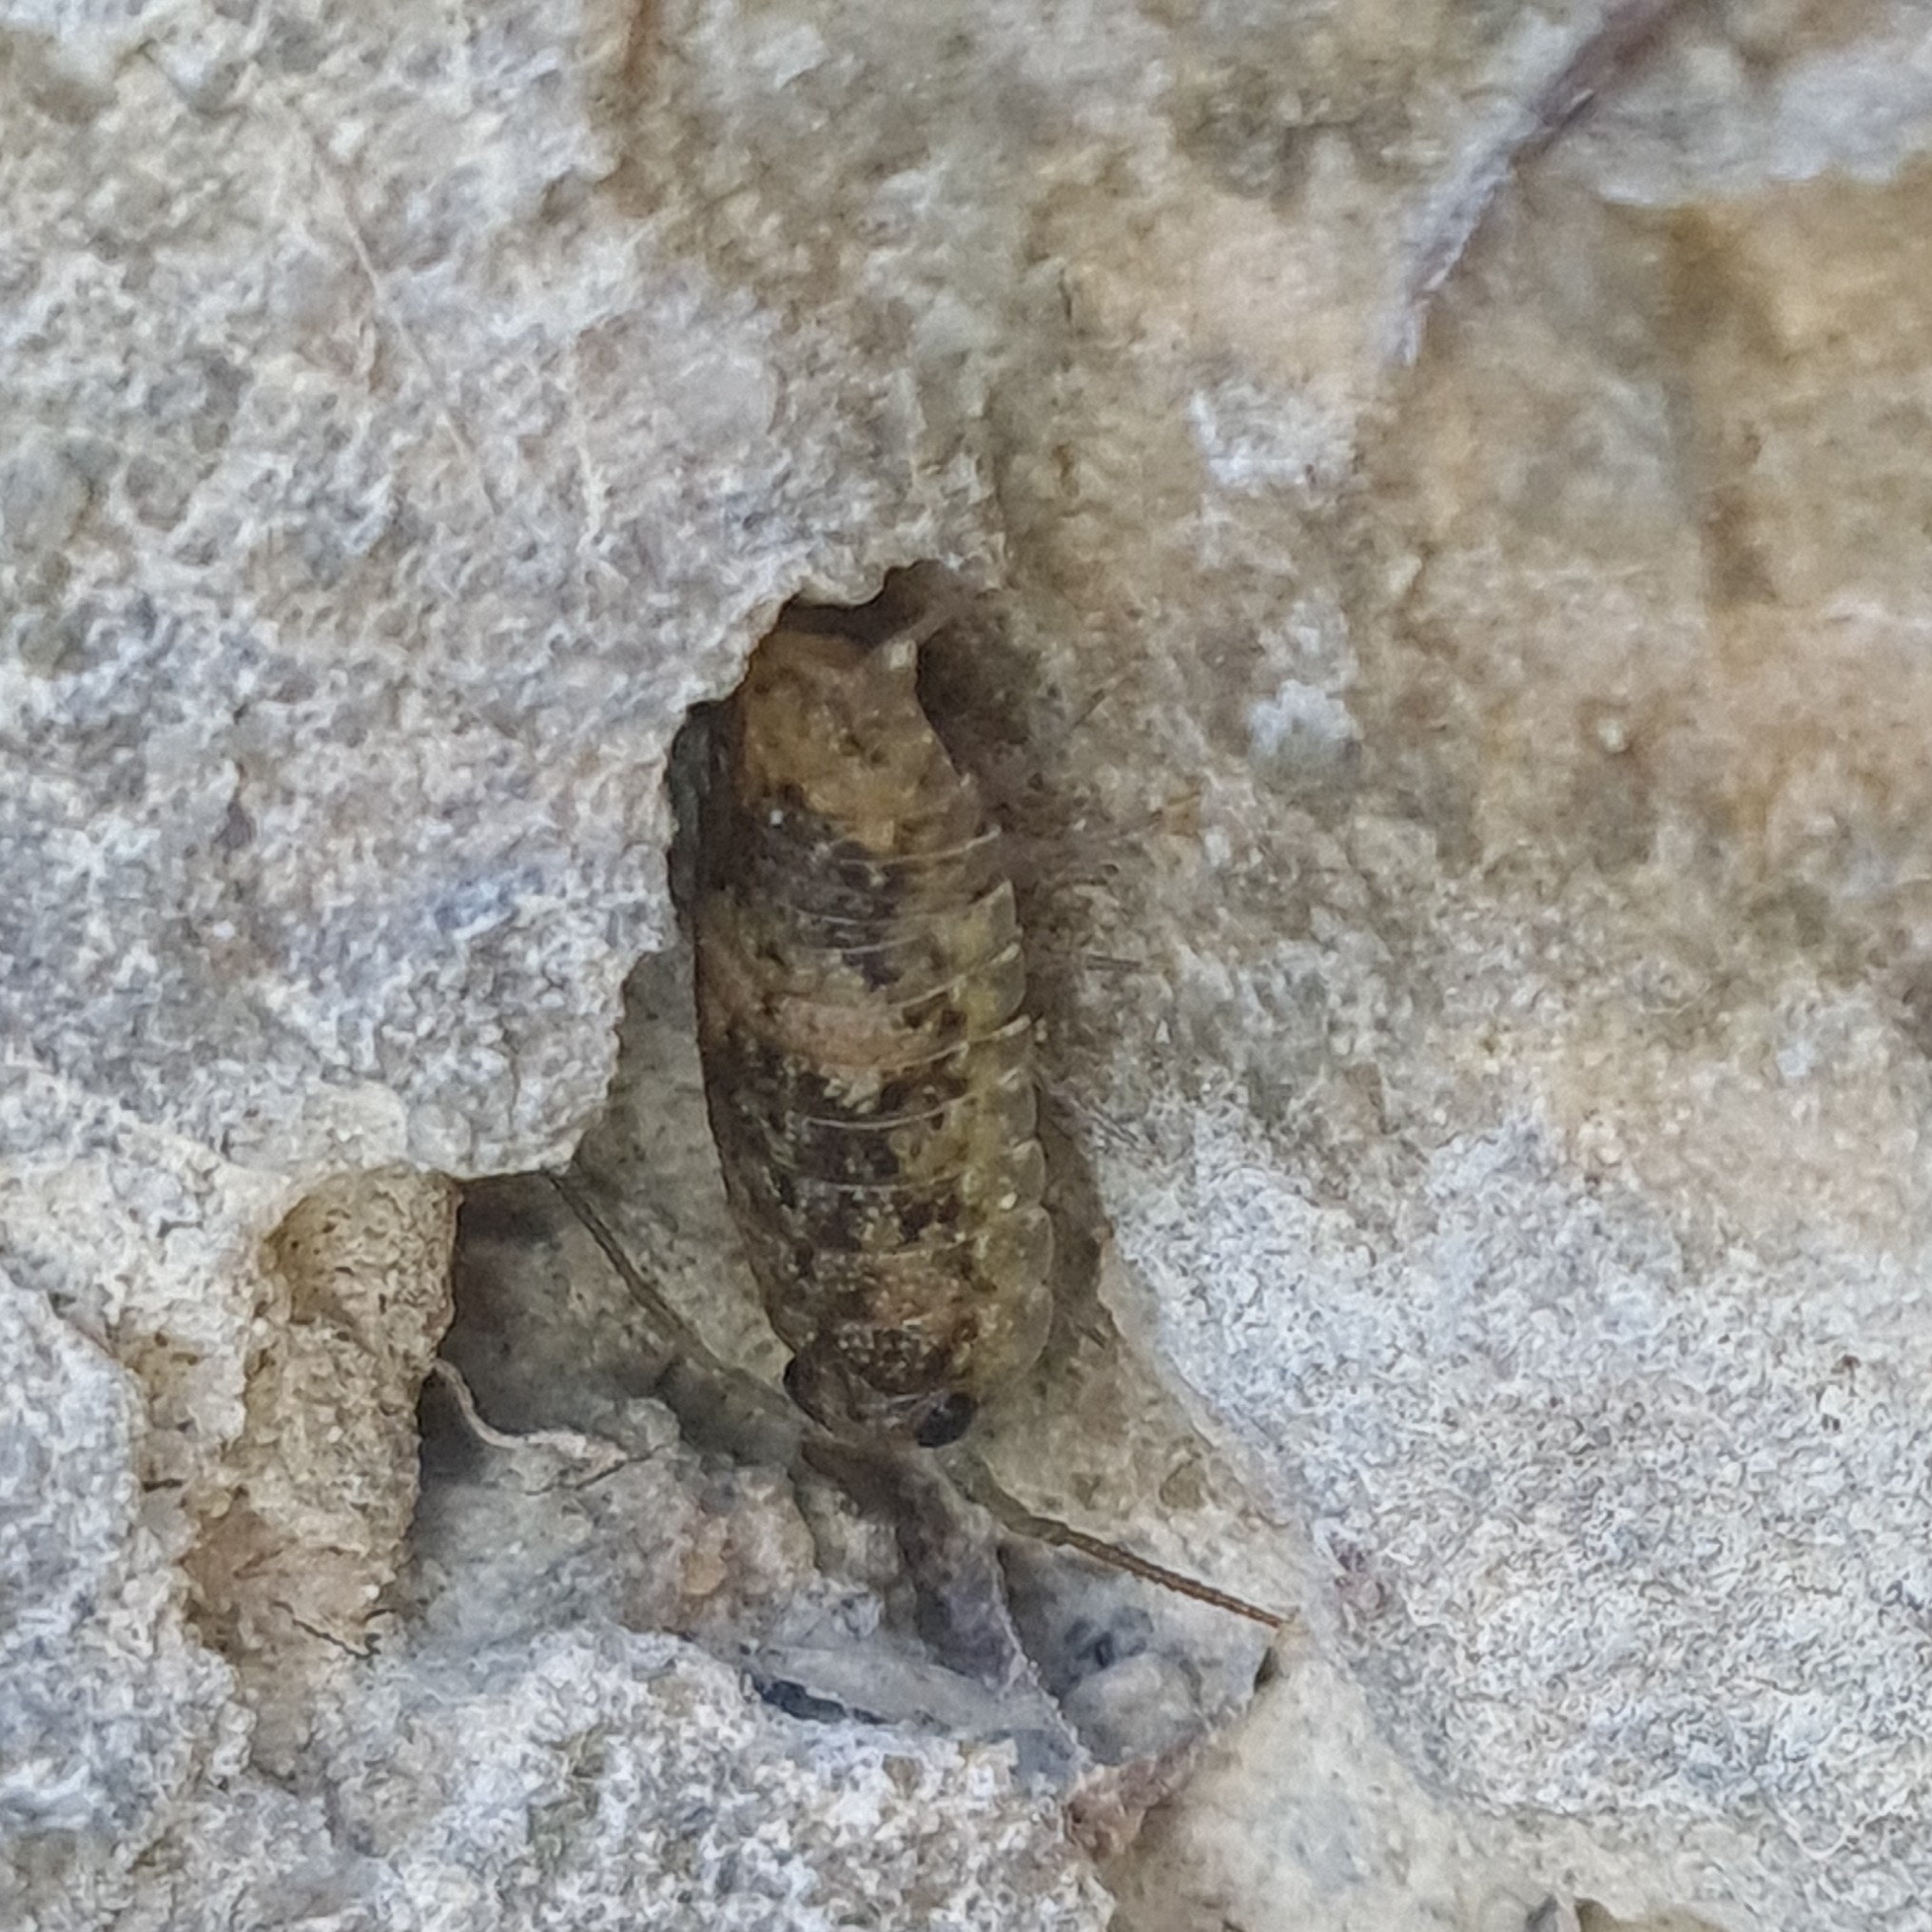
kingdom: Animalia
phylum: Arthropoda
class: Malacostraca
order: Isopoda
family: Ligiidae
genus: Ligia
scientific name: Ligia oceanica
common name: Sea slater
